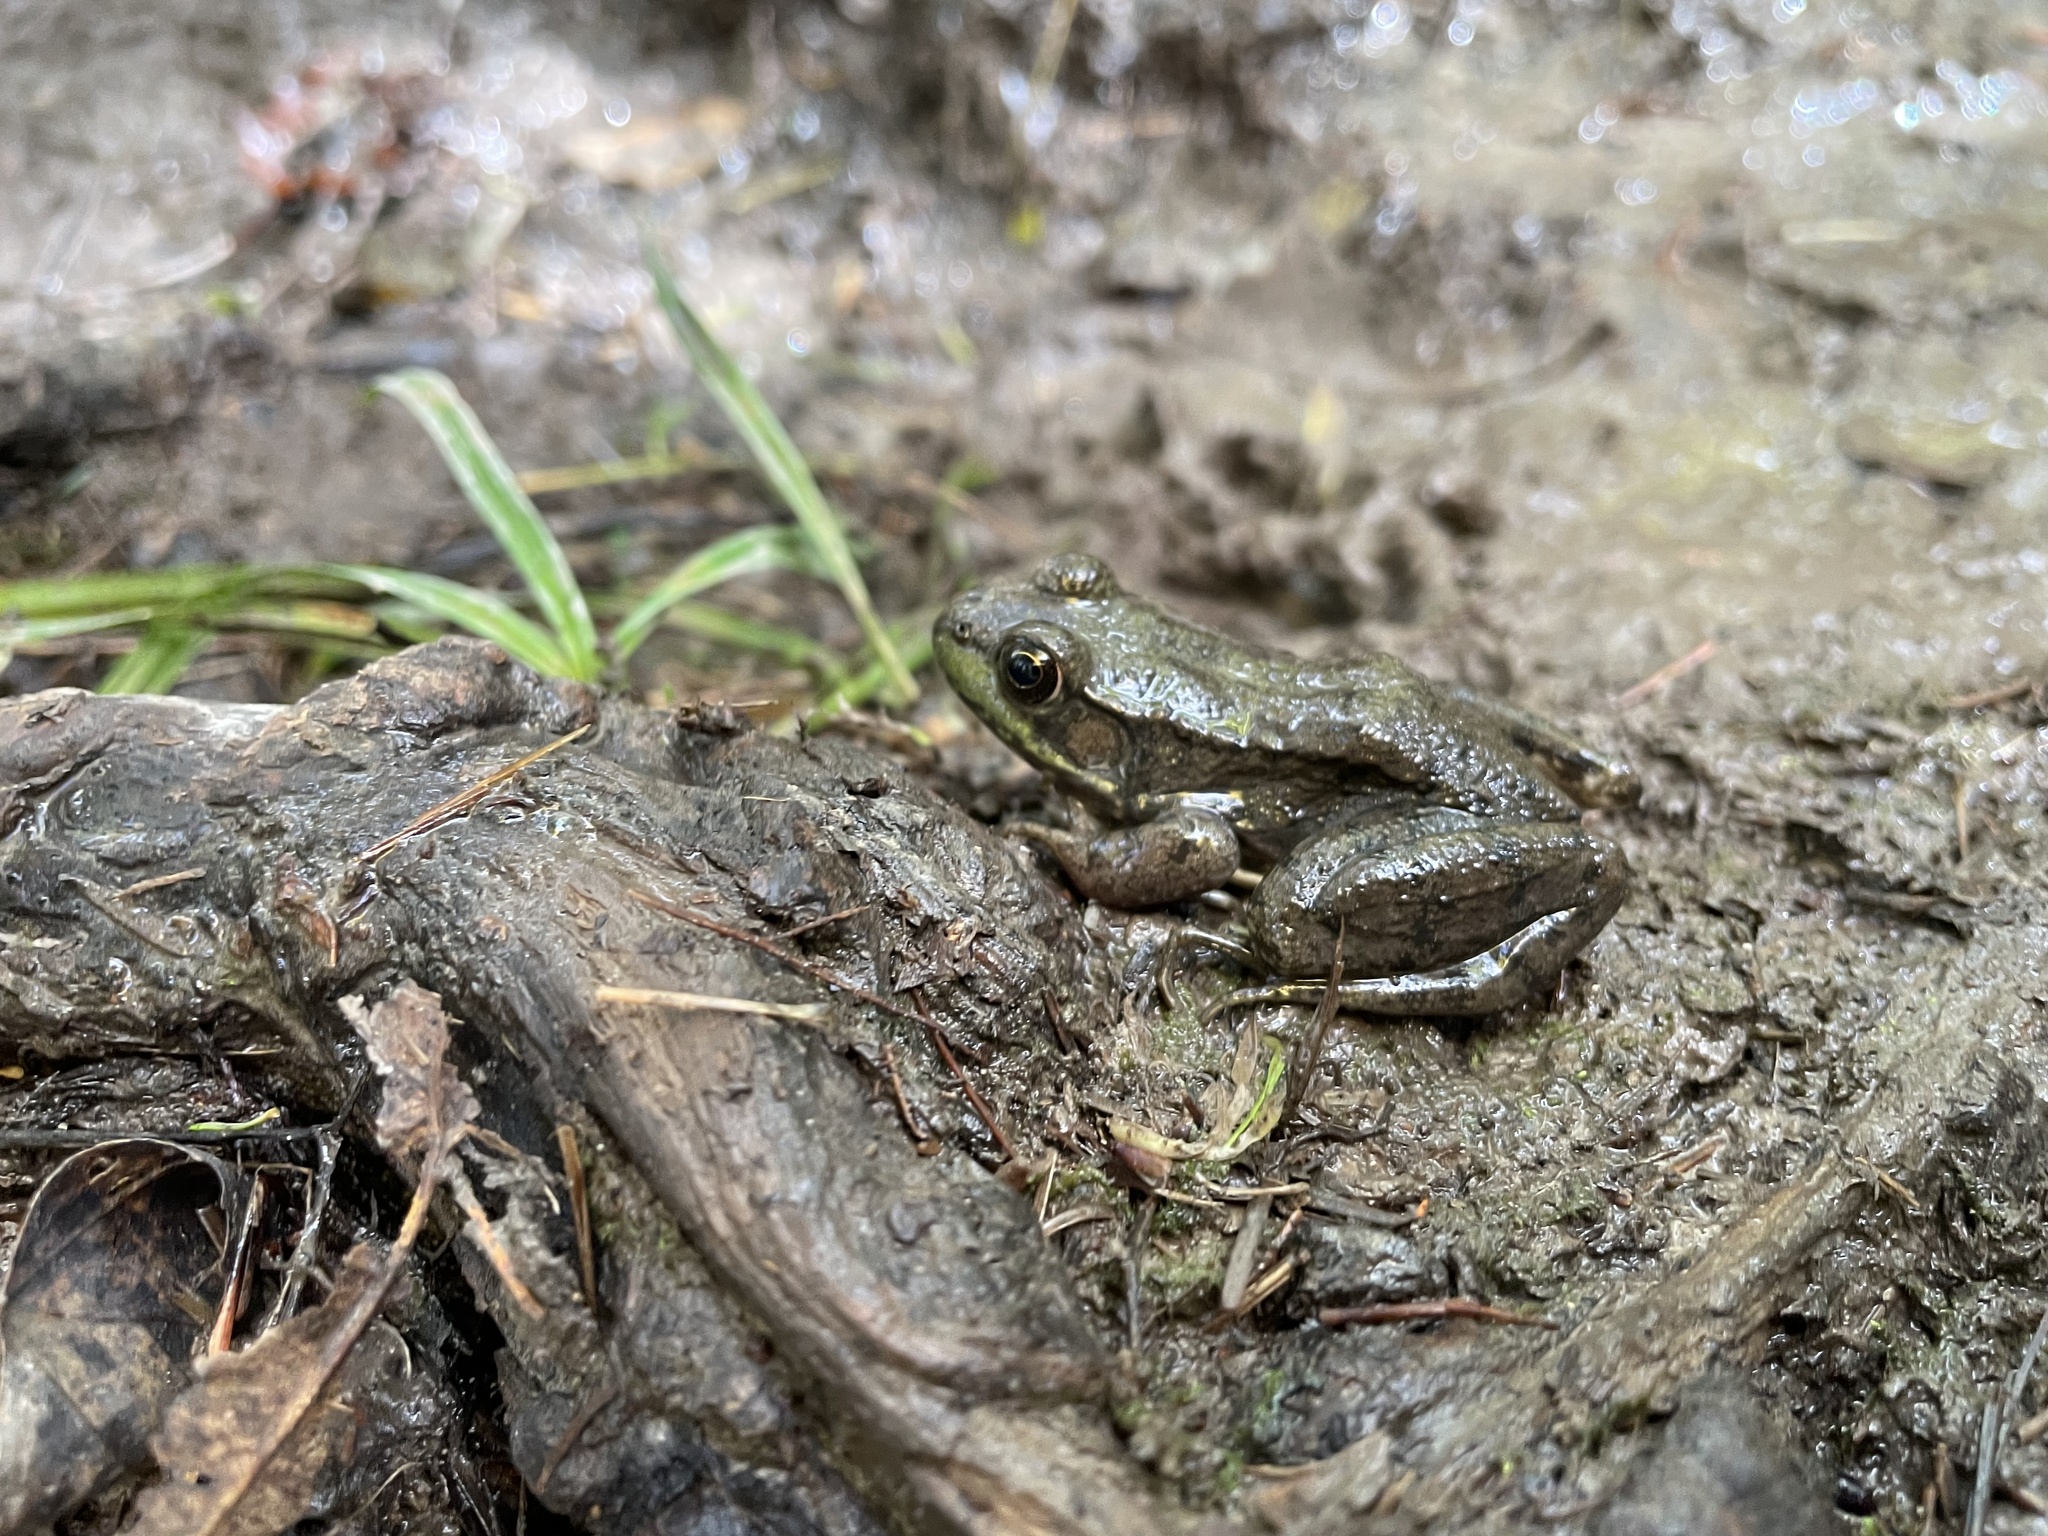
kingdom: Animalia
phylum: Chordata
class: Amphibia
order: Anura
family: Ranidae
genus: Lithobates
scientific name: Lithobates clamitans
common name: Green frog
